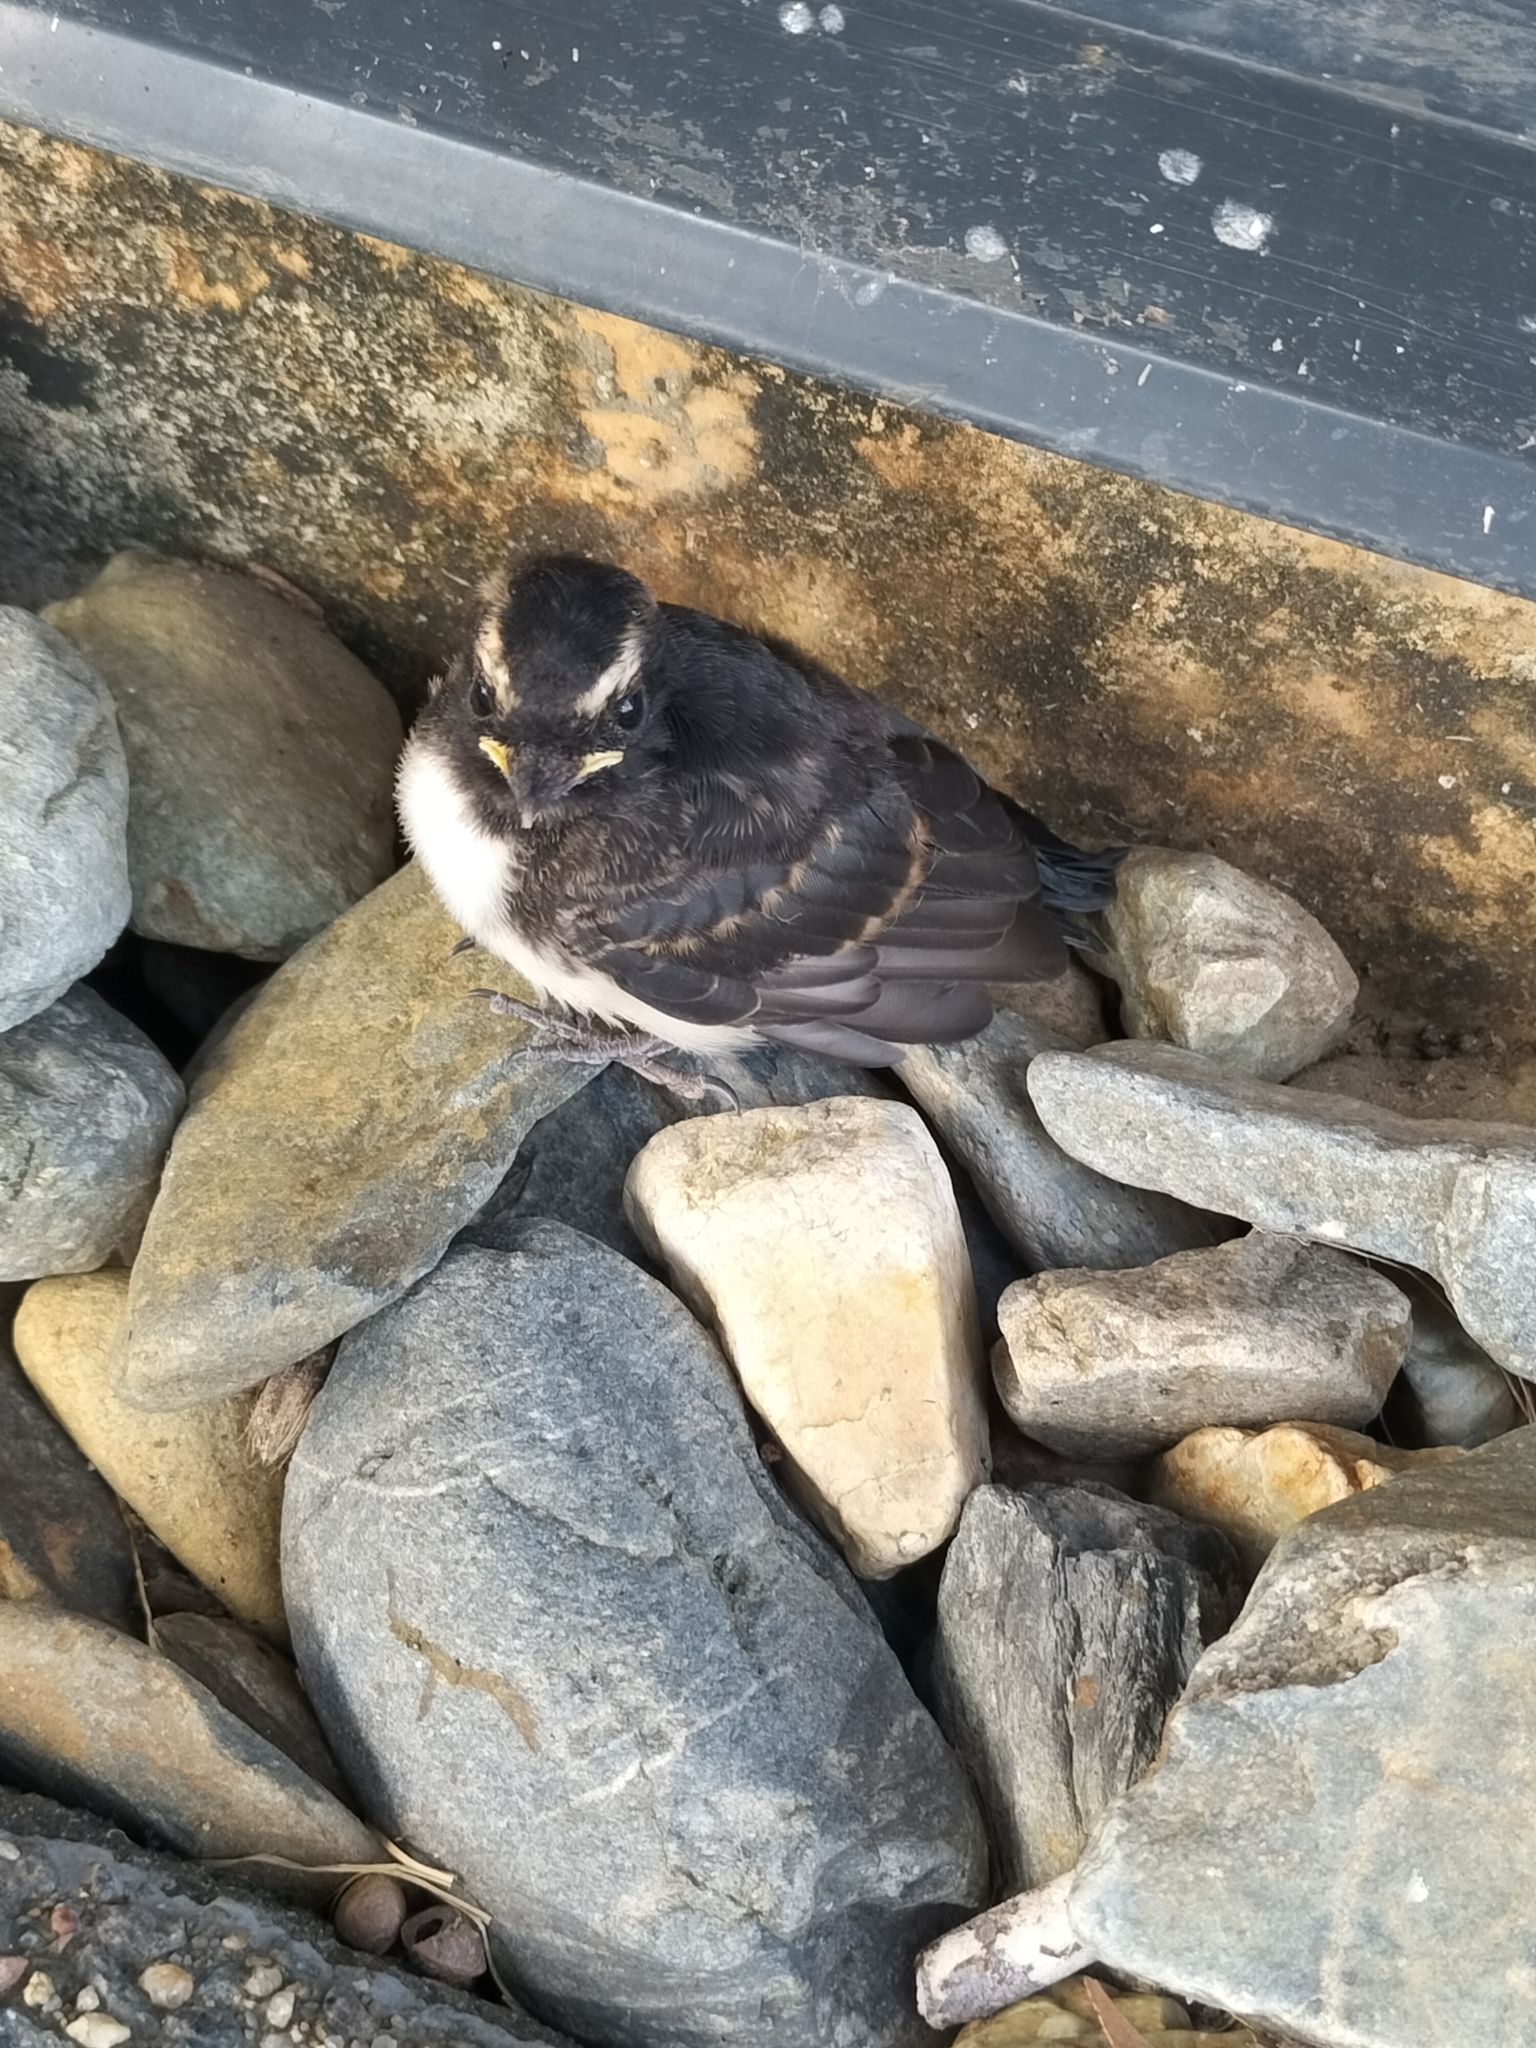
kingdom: Animalia
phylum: Chordata
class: Aves
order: Passeriformes
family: Rhipiduridae
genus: Rhipidura
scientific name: Rhipidura leucophrys
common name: Willie wagtail
